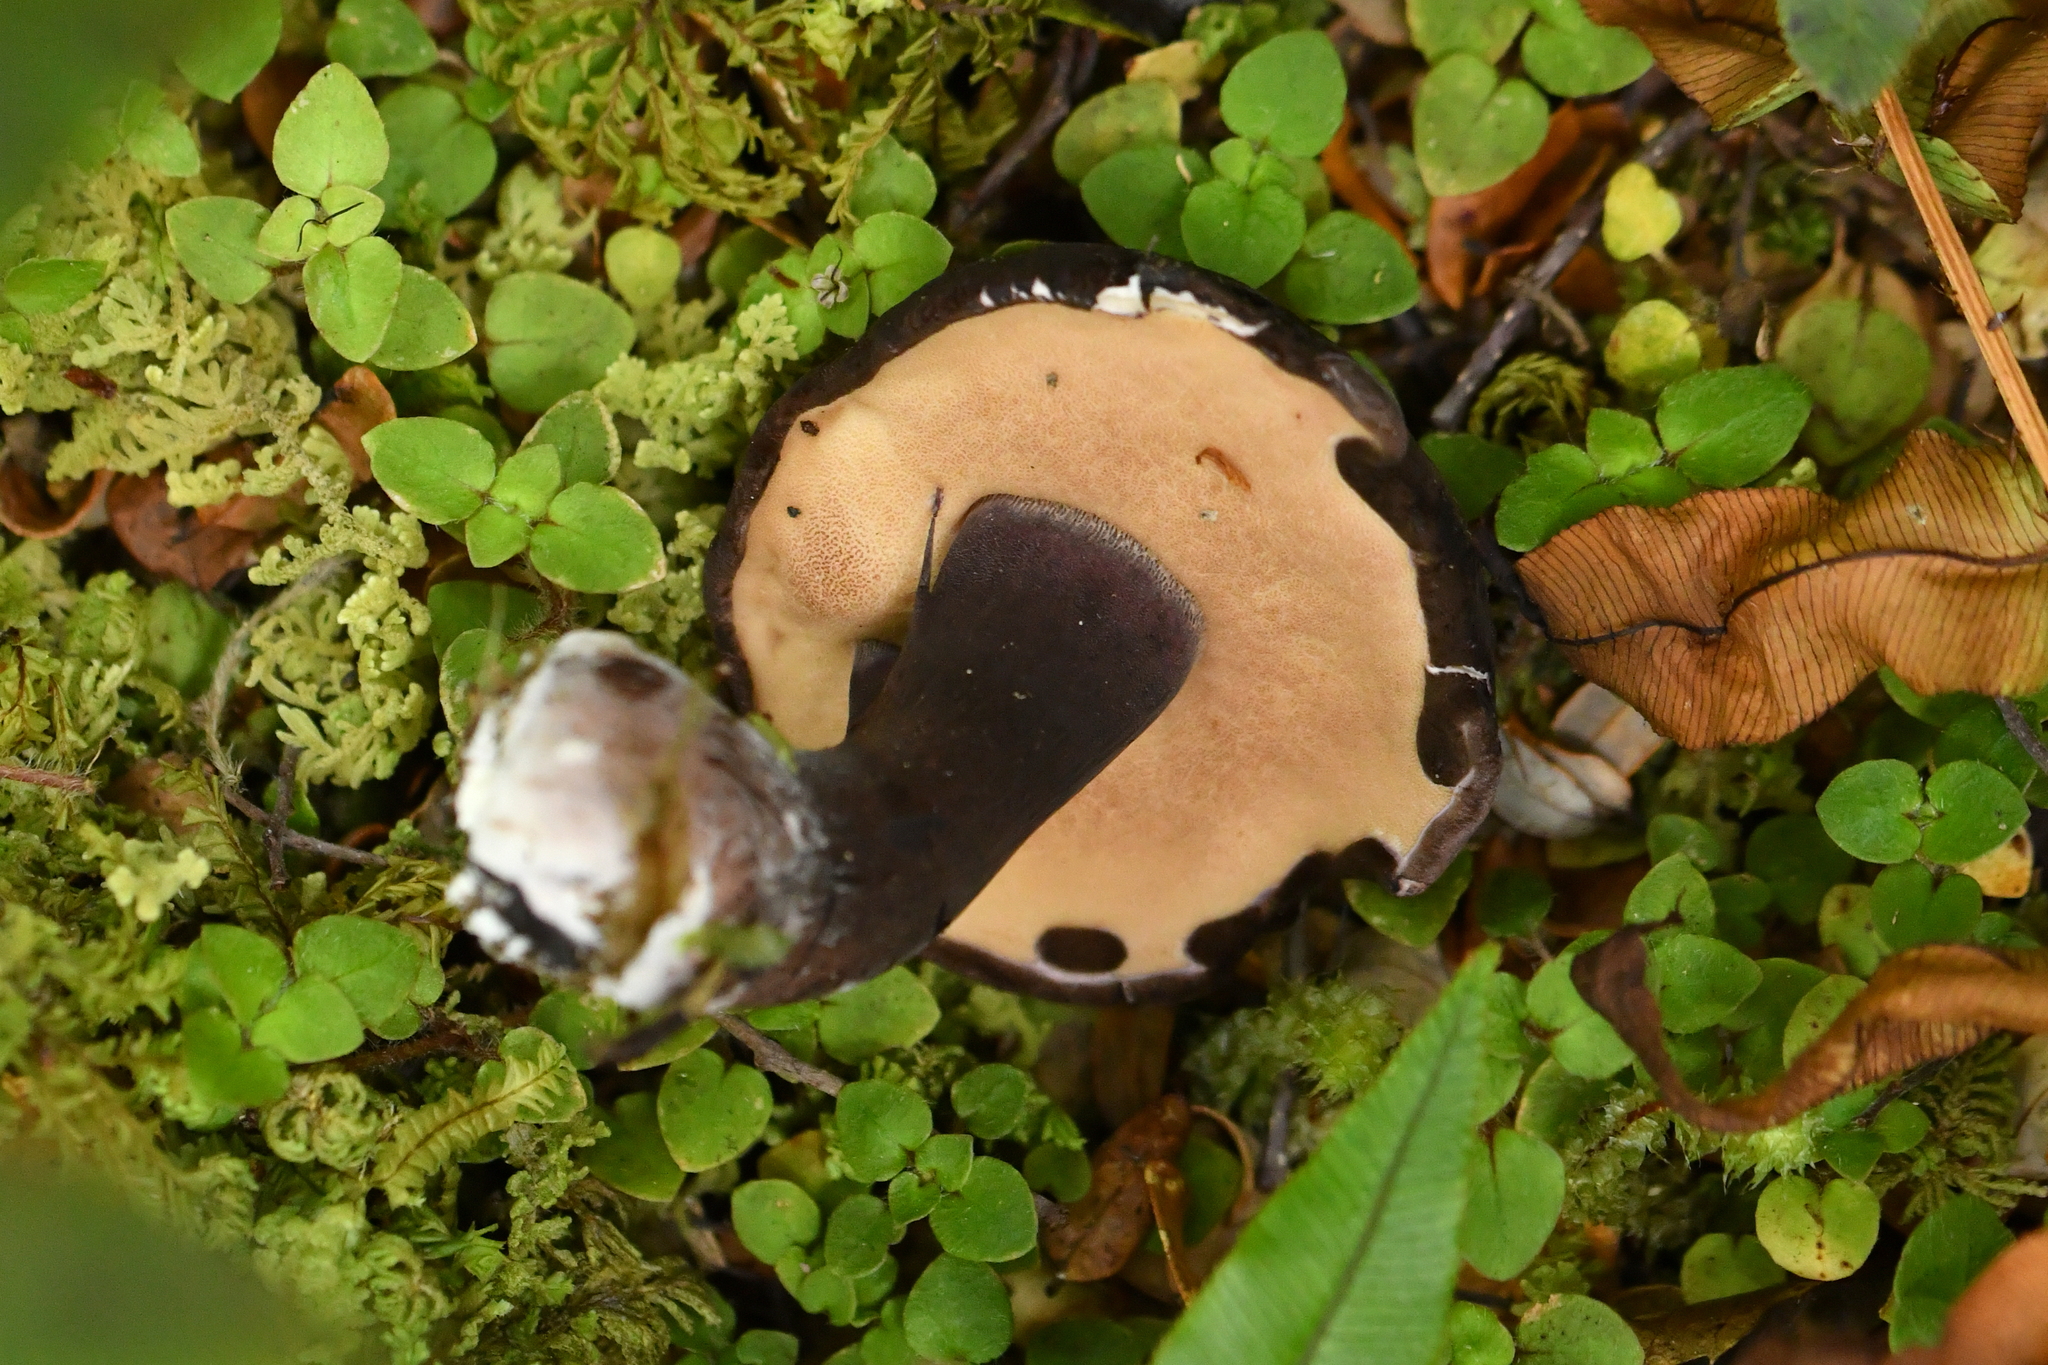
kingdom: Fungi
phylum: Basidiomycota
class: Agaricomycetes
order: Boletales
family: Boletaceae
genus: Porphyrellus
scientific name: Porphyrellus formosus
